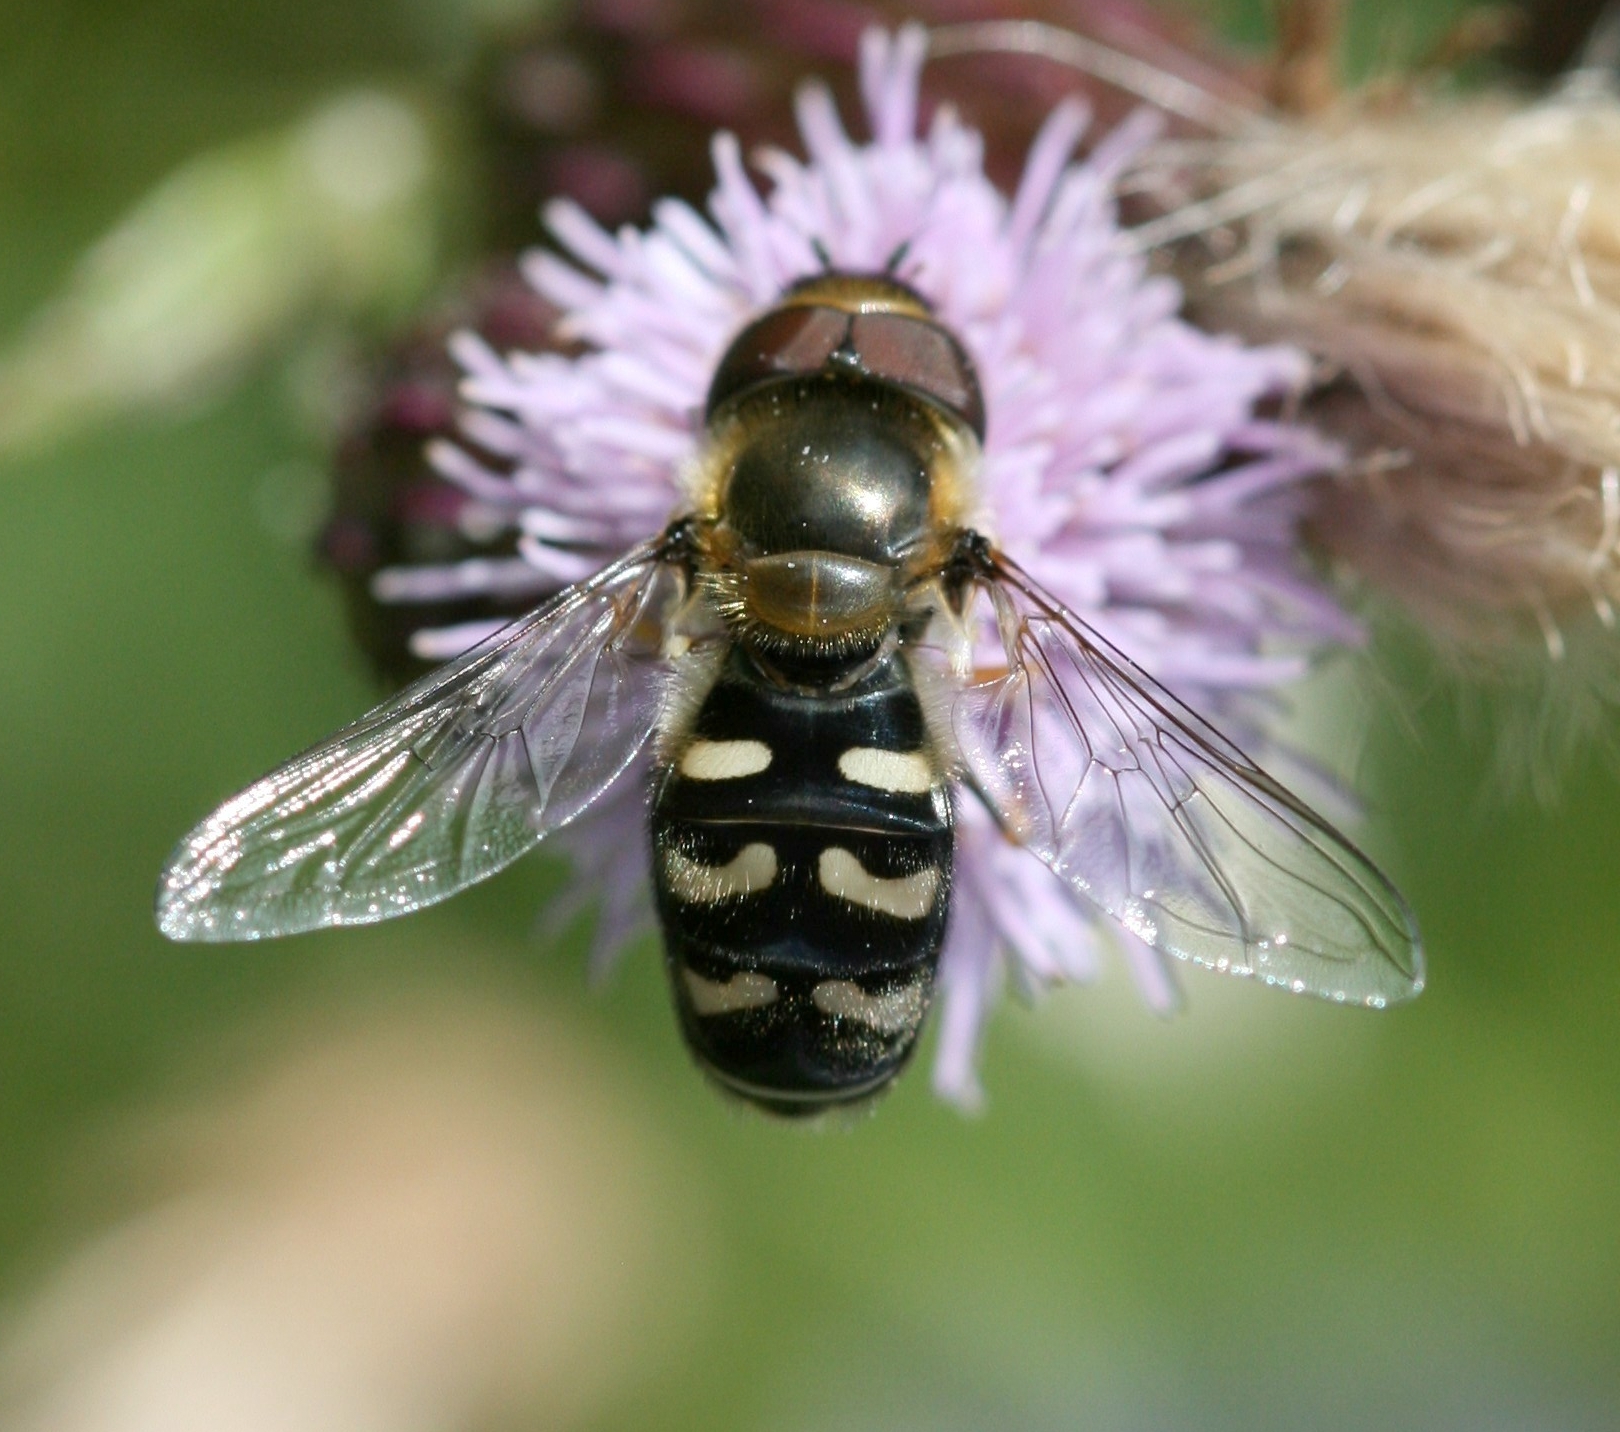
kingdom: Animalia
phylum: Arthropoda
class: Insecta
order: Diptera
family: Syrphidae
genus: Scaeva
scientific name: Scaeva pyrastri
